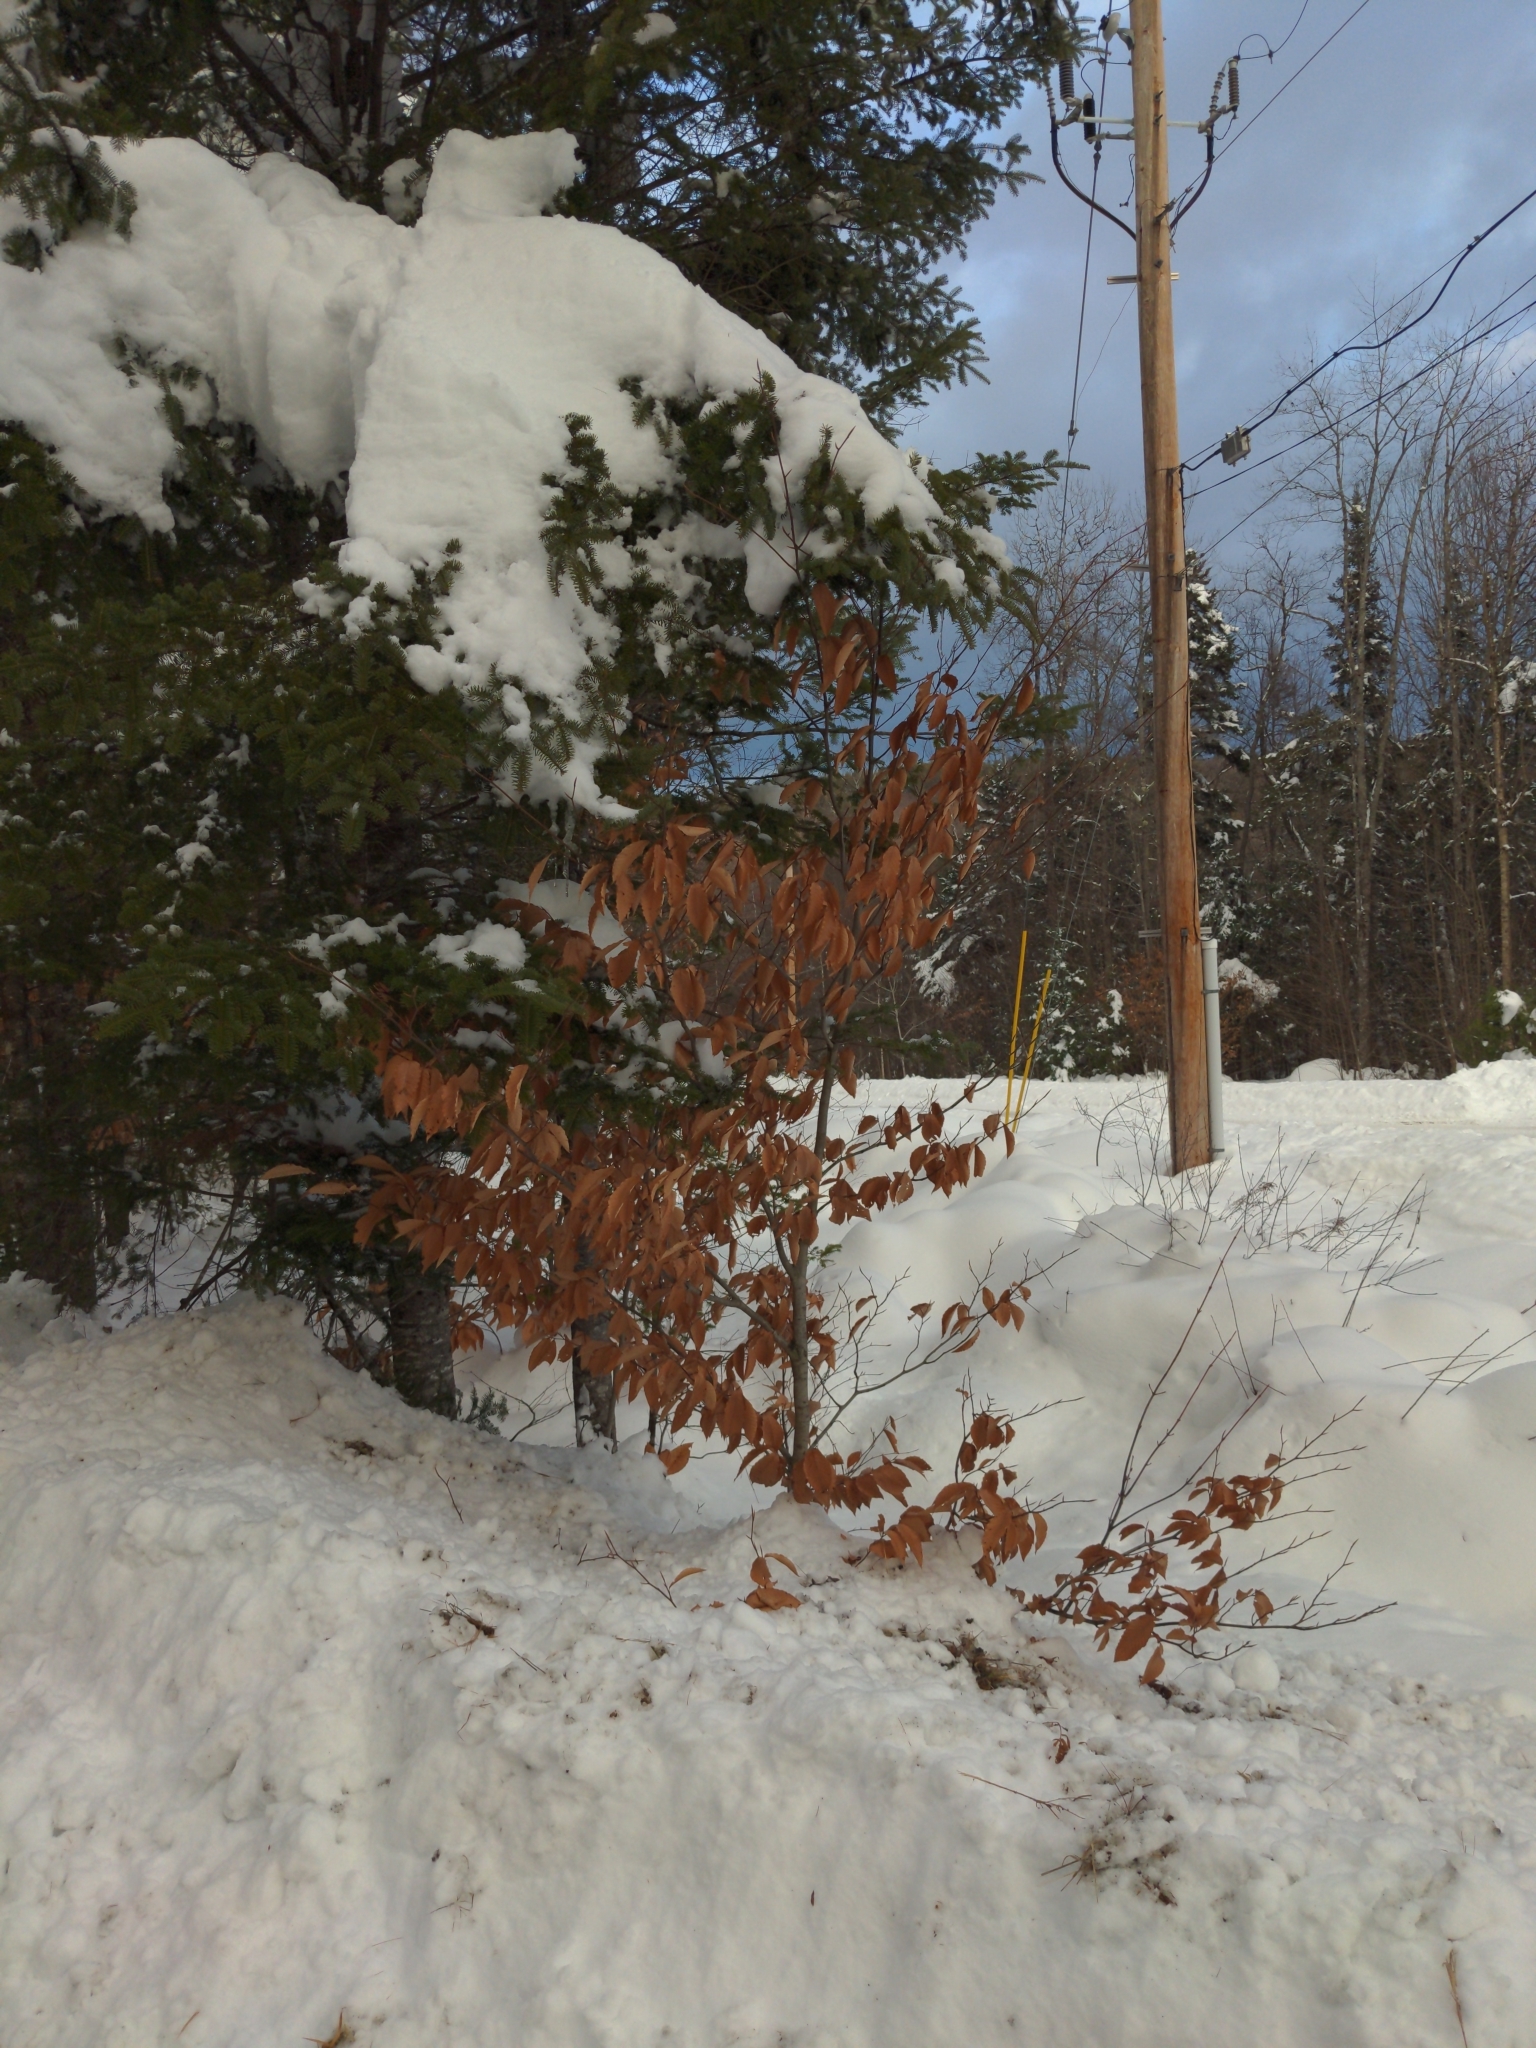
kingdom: Plantae
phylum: Tracheophyta
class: Magnoliopsida
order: Fagales
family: Fagaceae
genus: Fagus
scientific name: Fagus grandifolia
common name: American beech
